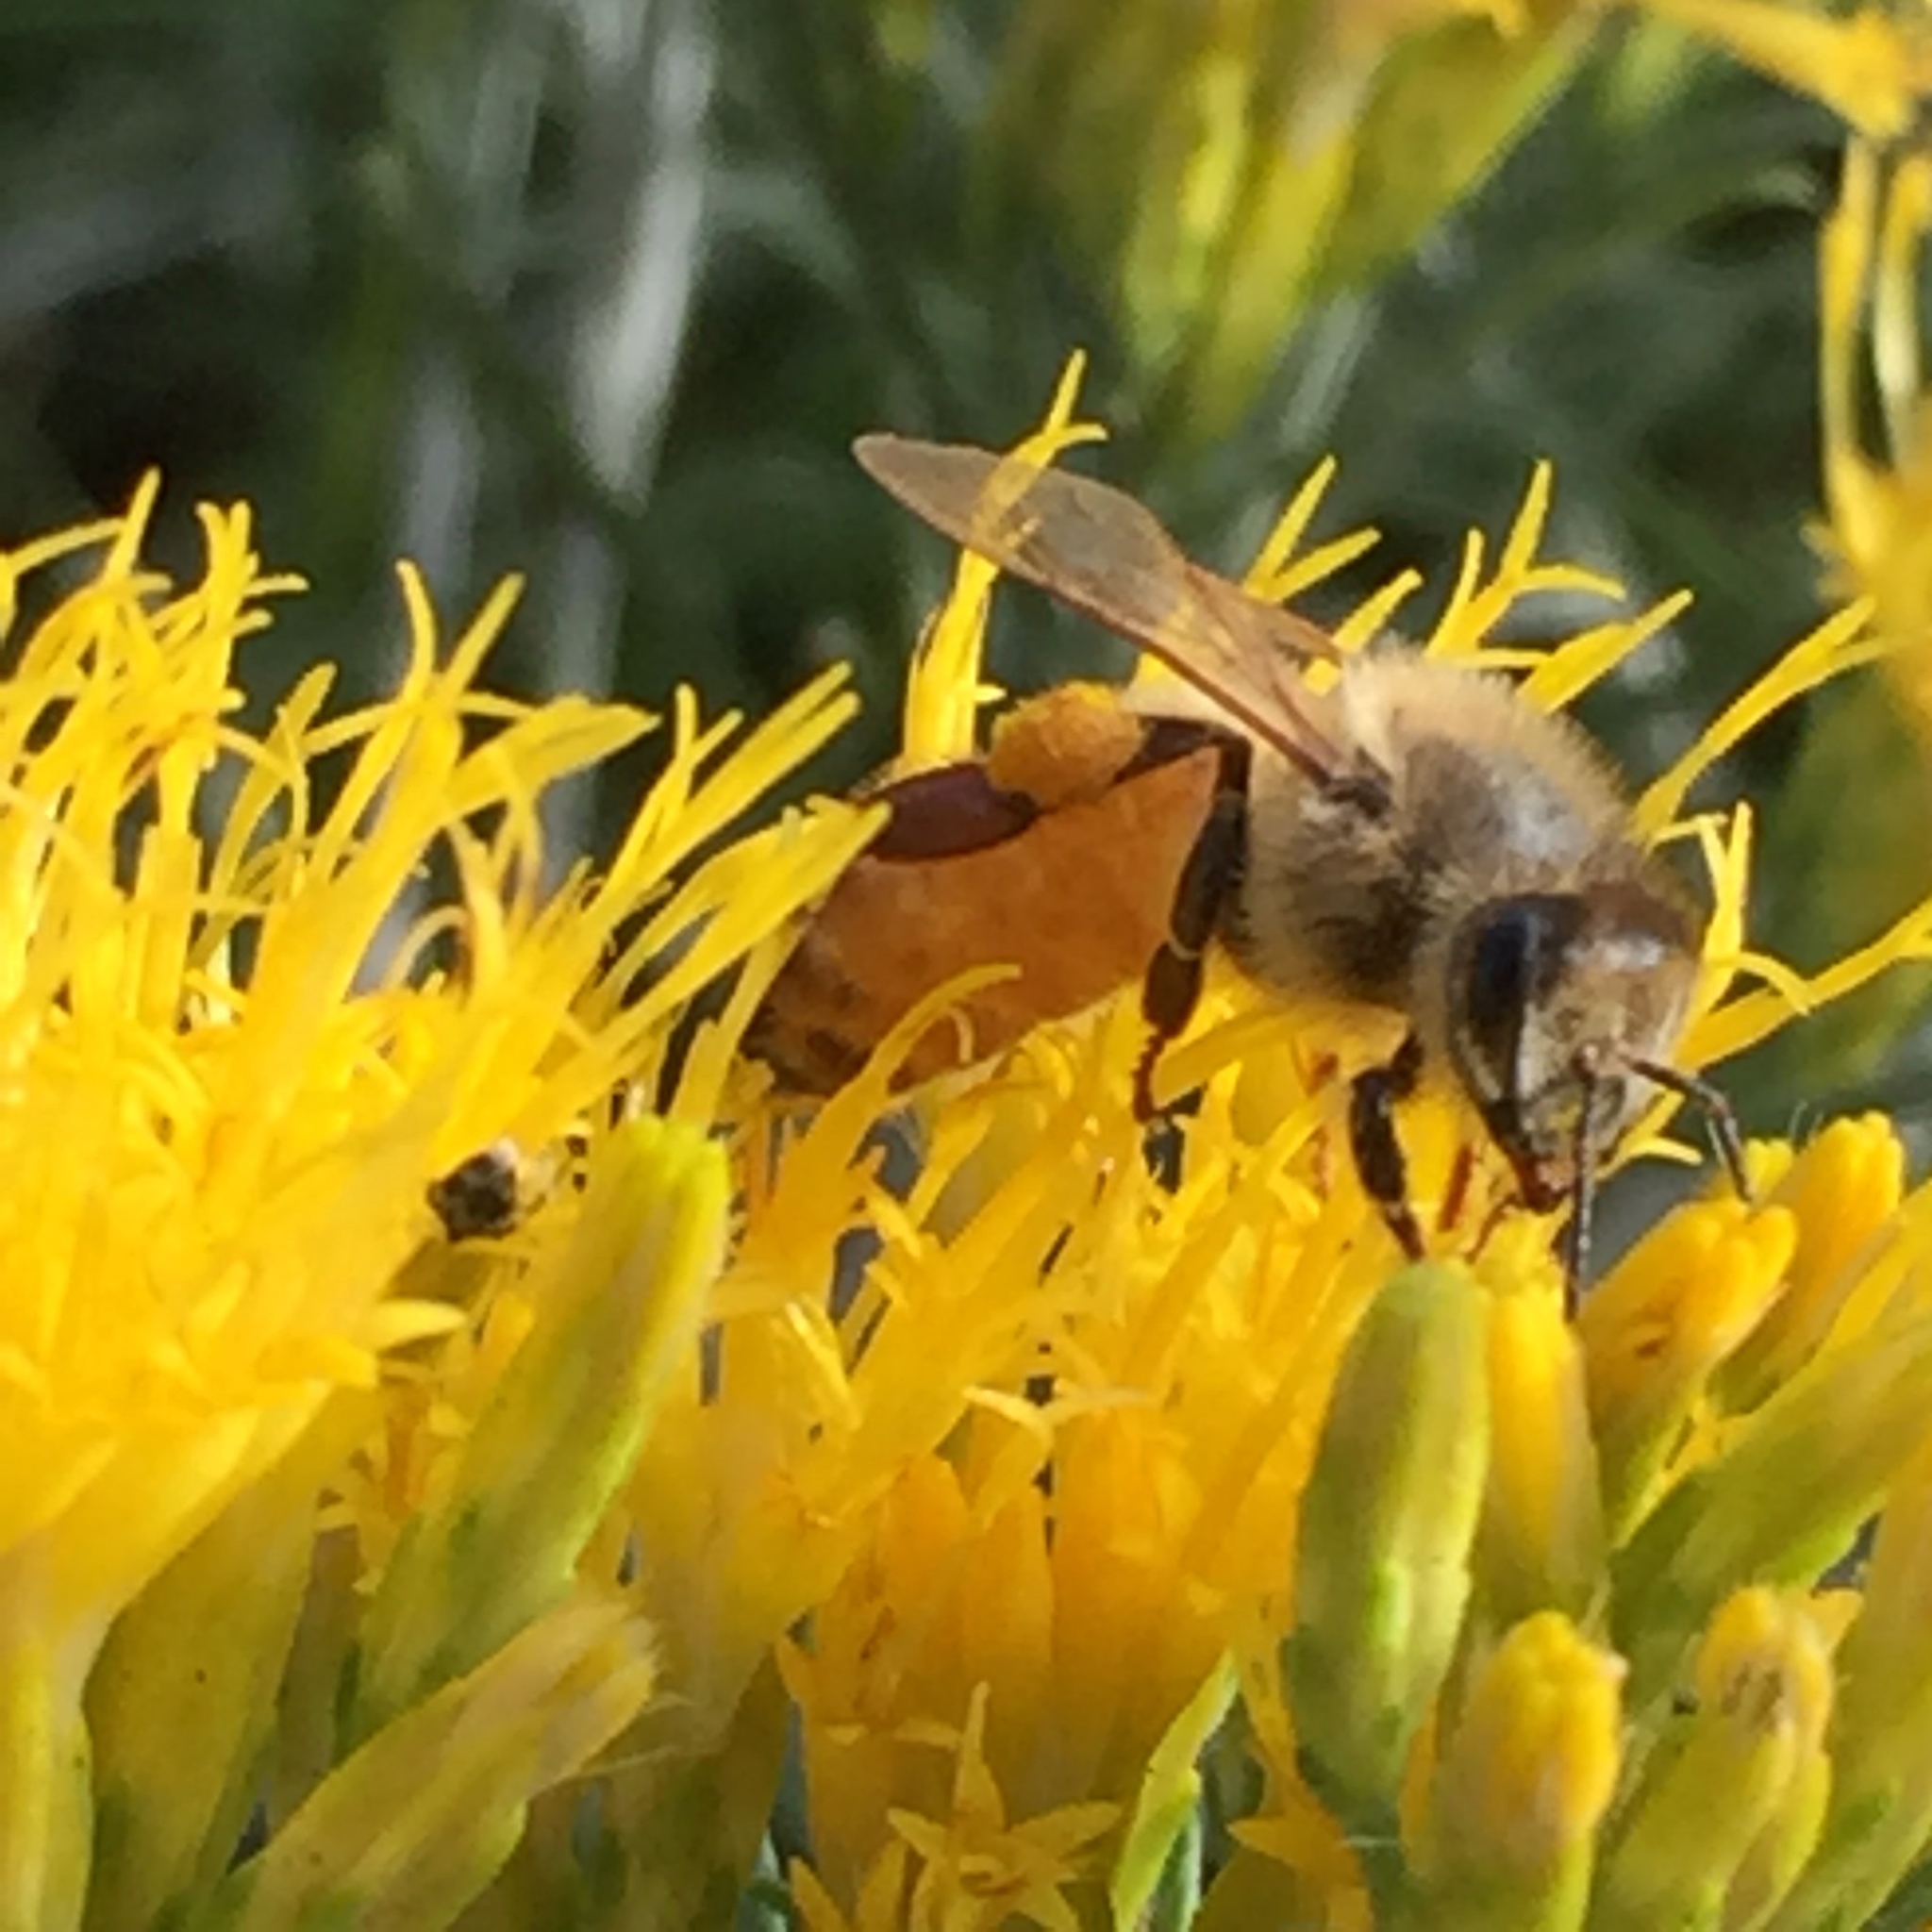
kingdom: Animalia
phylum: Arthropoda
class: Insecta
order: Hymenoptera
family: Apidae
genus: Apis
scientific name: Apis mellifera
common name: Honey bee
